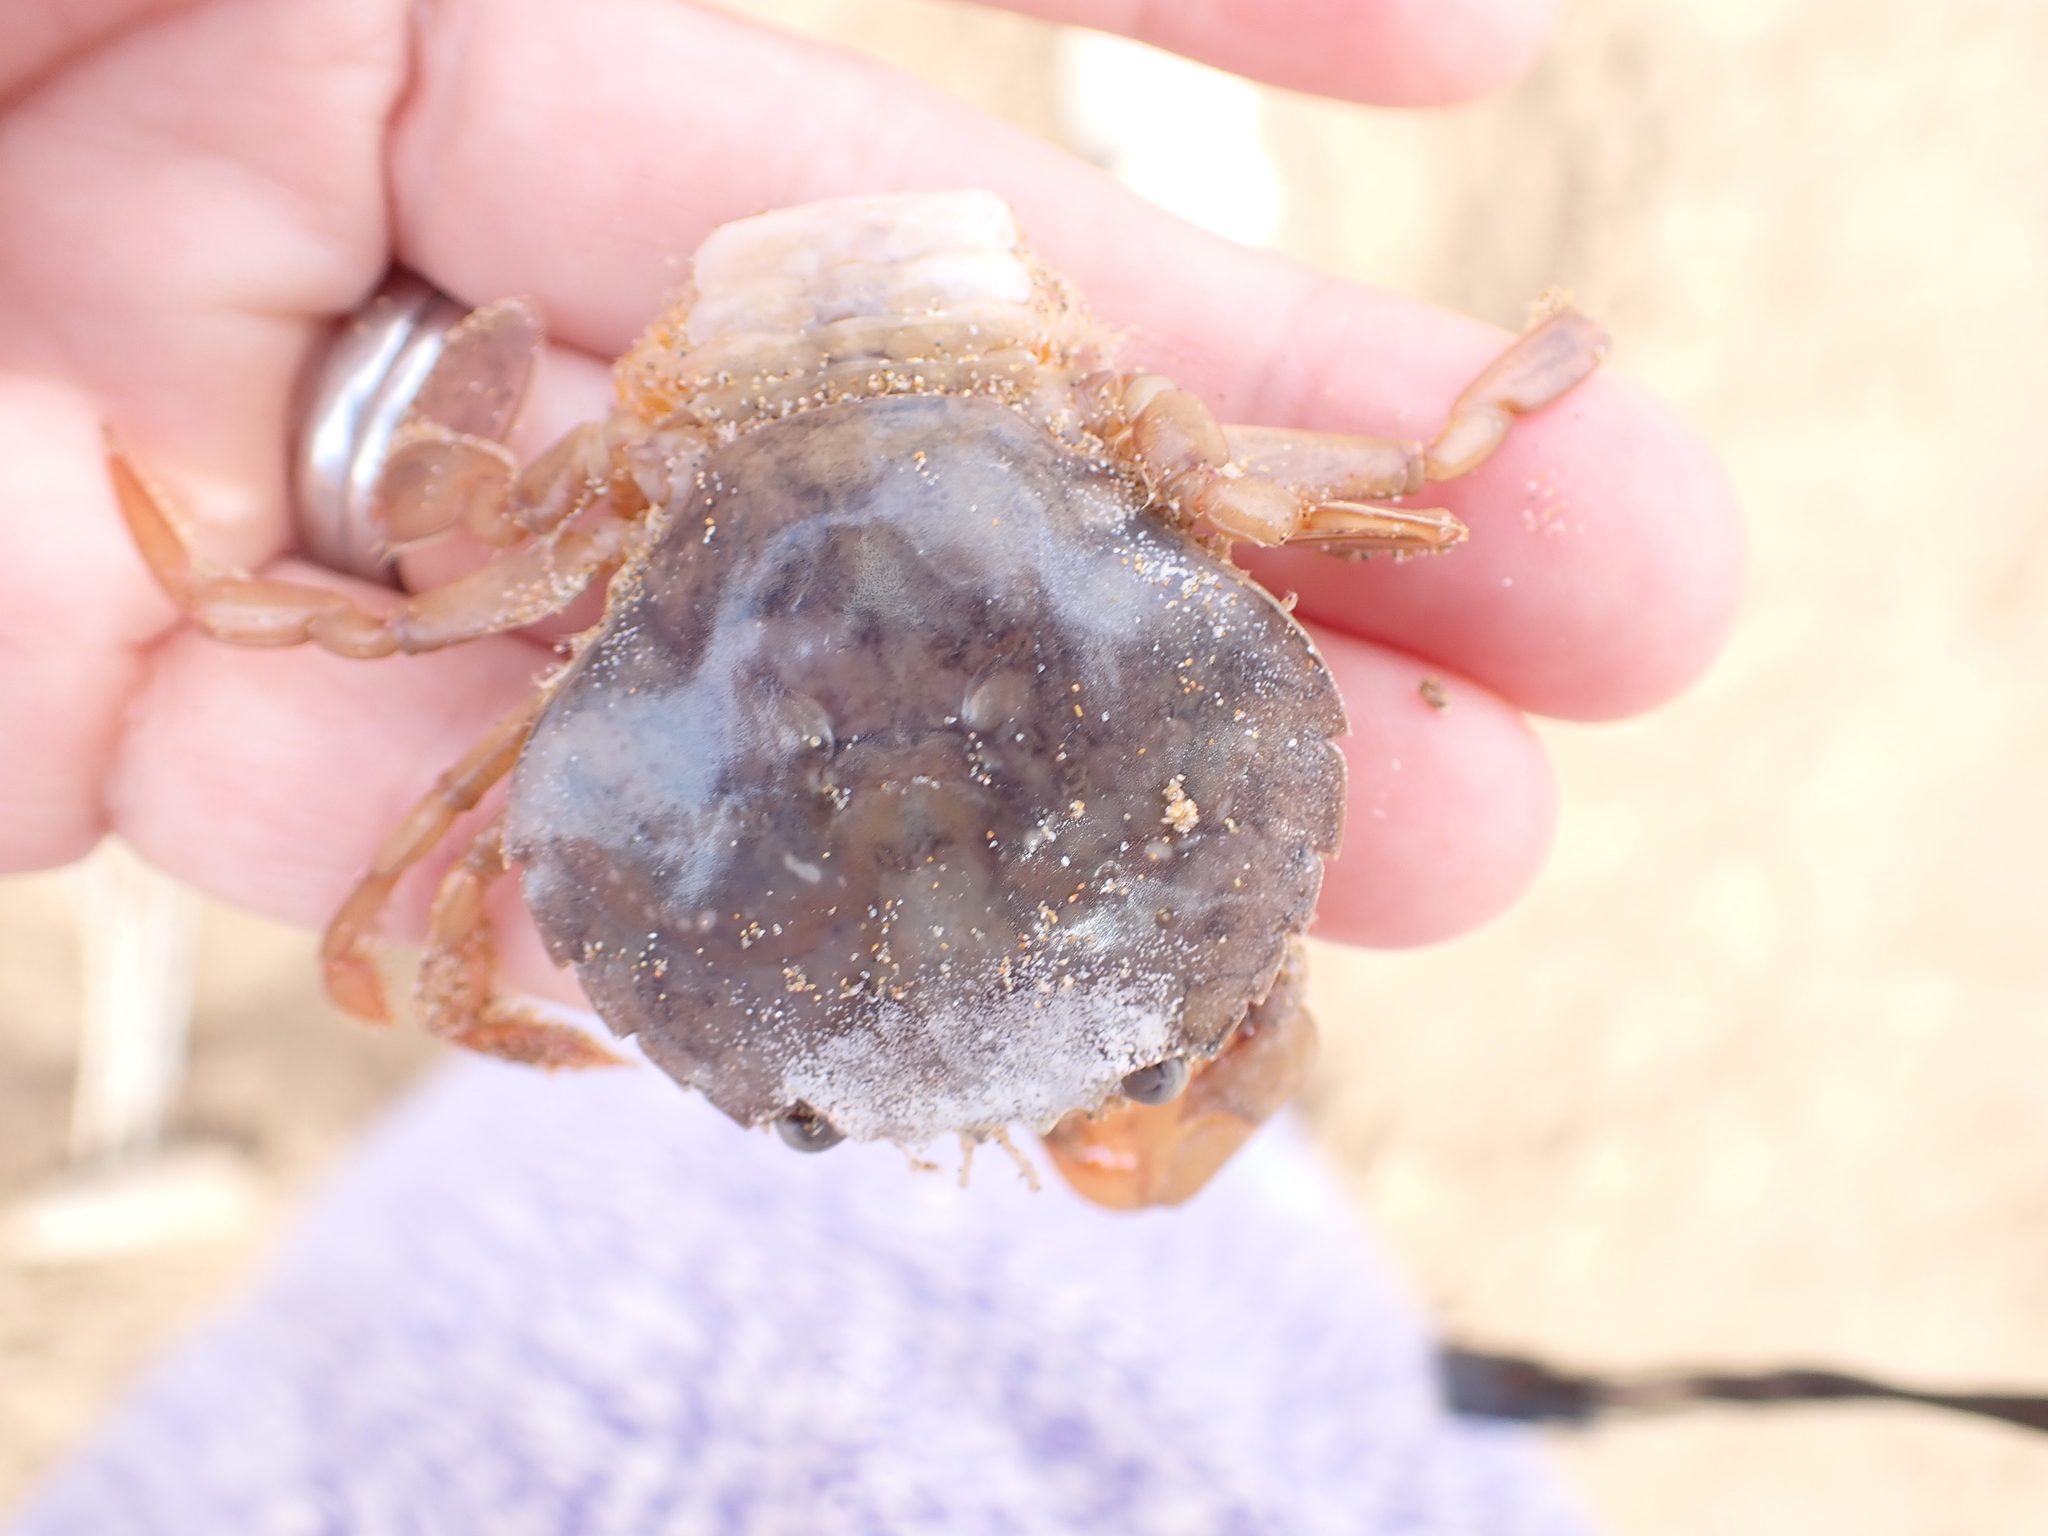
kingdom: Animalia
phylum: Arthropoda
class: Malacostraca
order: Decapoda
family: Polybiidae
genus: Polybius
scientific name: Polybius henslowii
